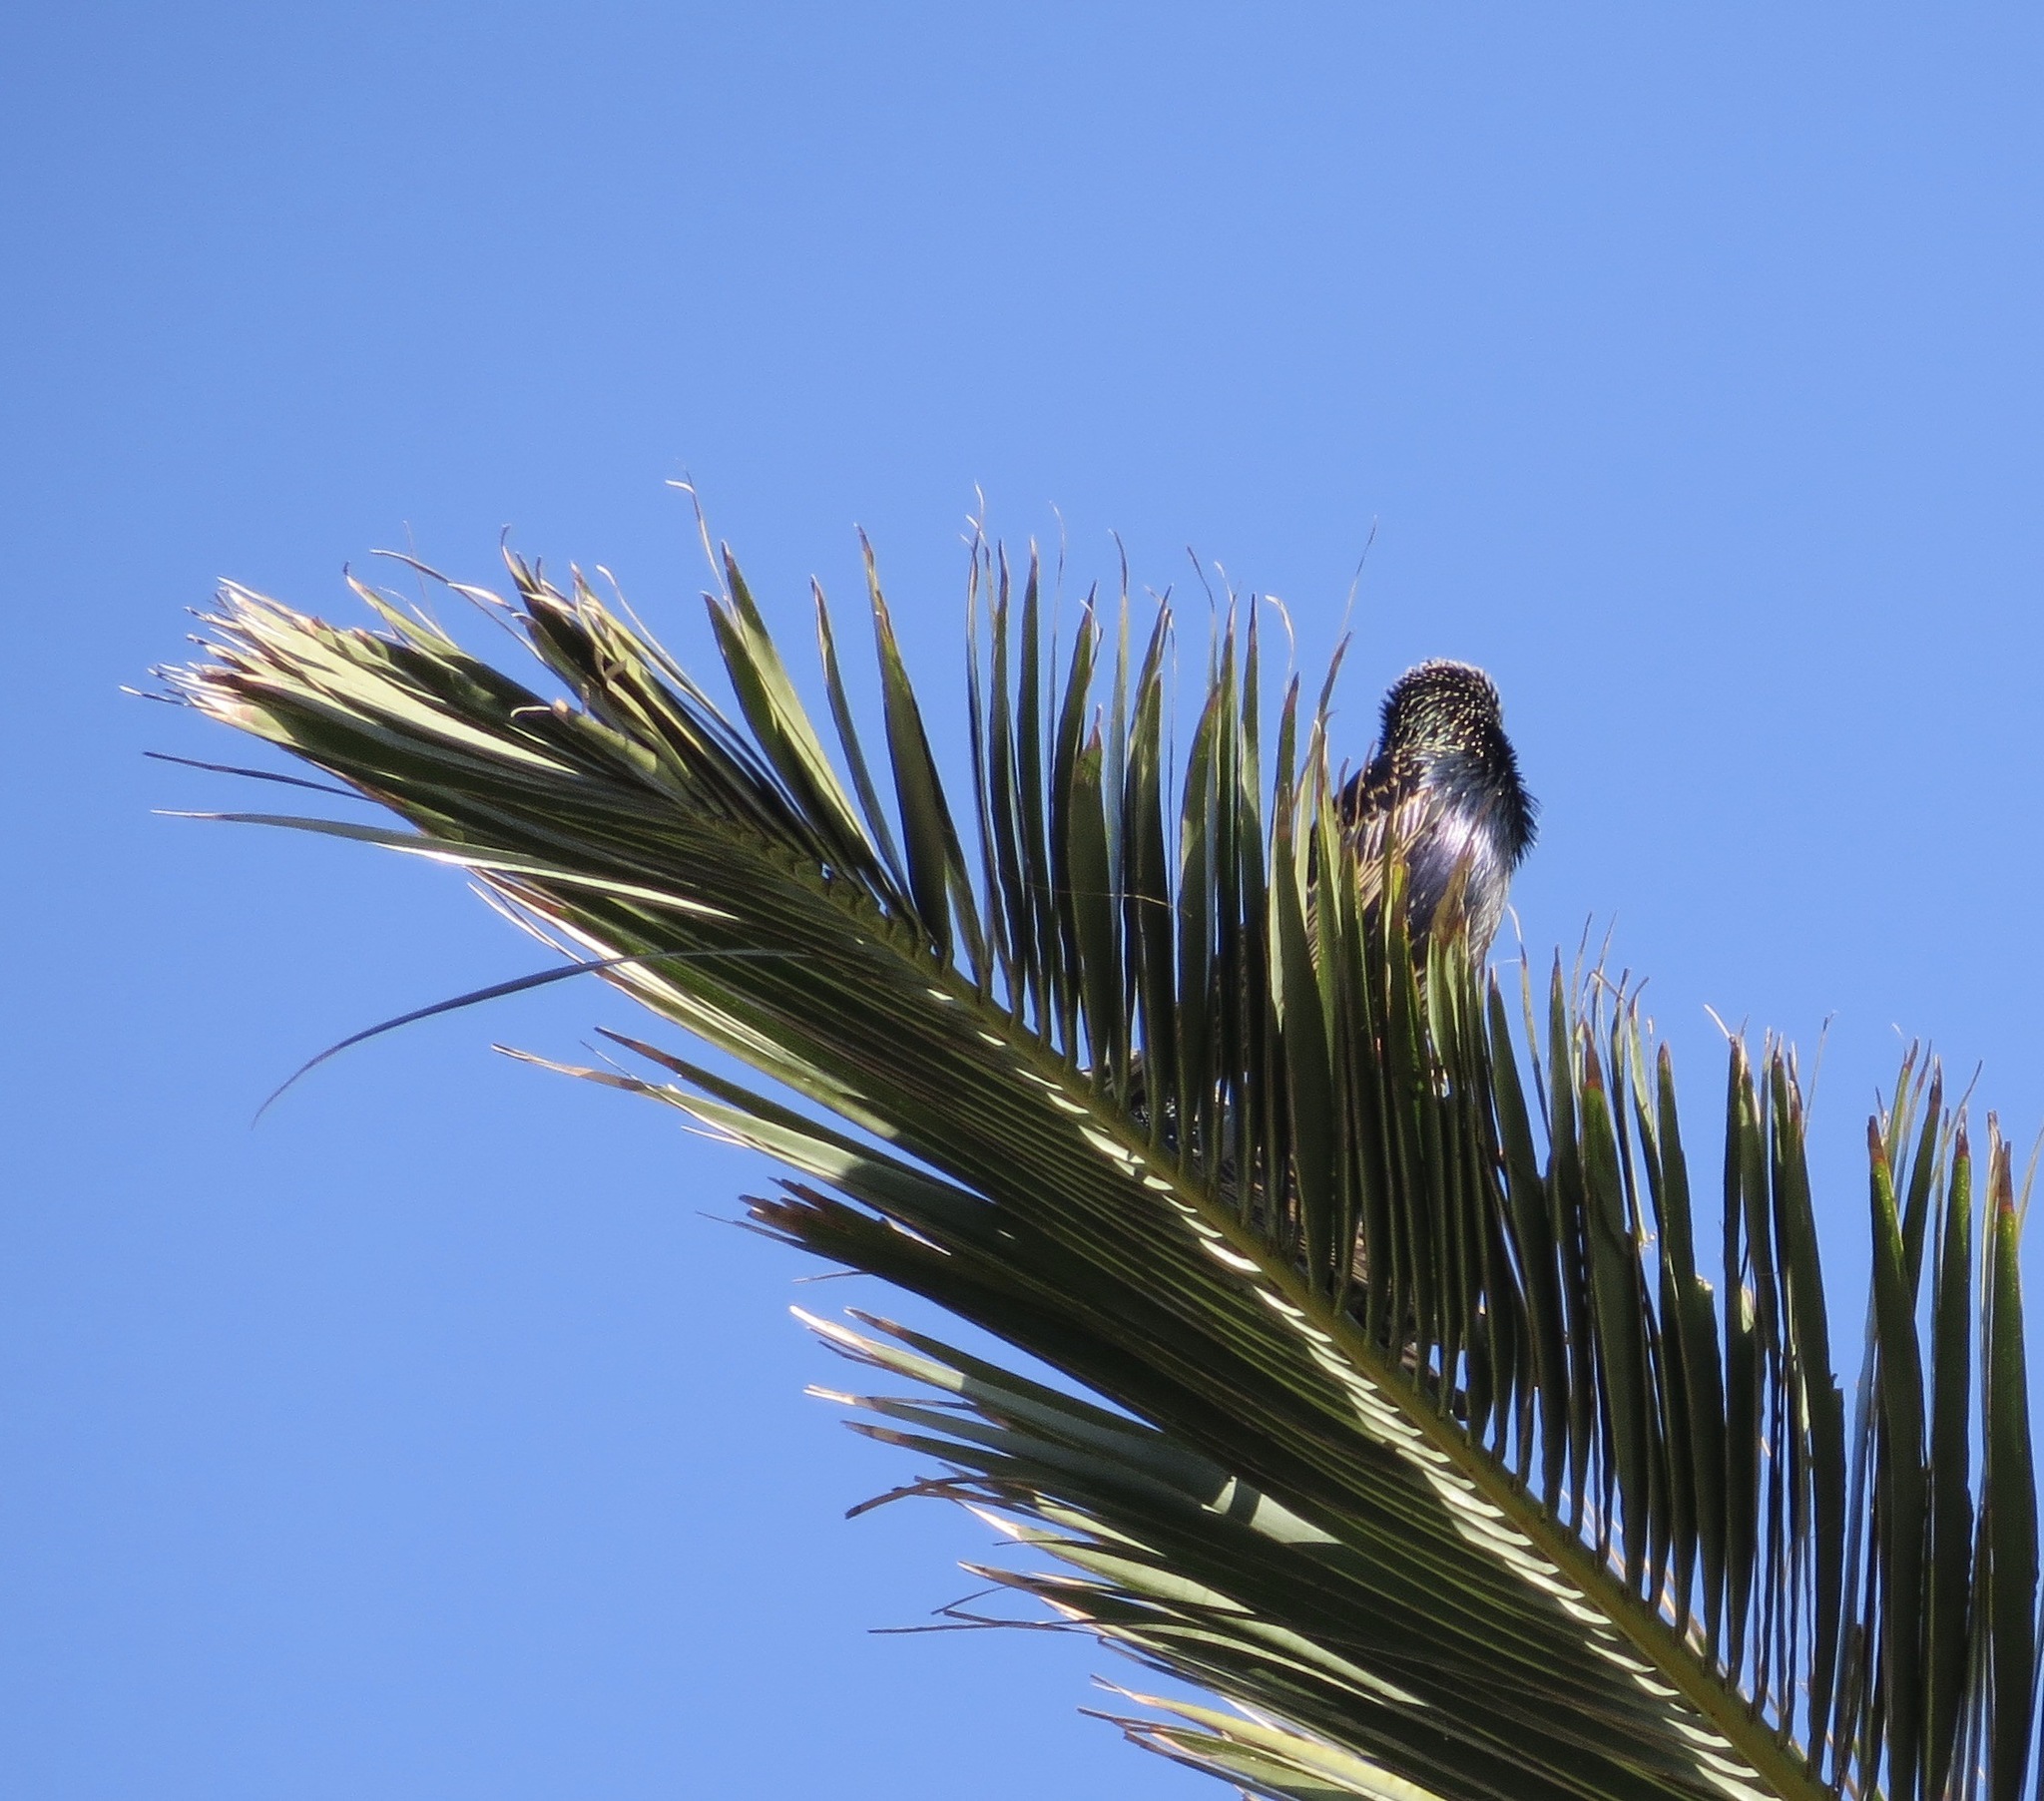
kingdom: Animalia
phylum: Chordata
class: Aves
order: Passeriformes
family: Sturnidae
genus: Sturnus
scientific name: Sturnus vulgaris
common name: Common starling
